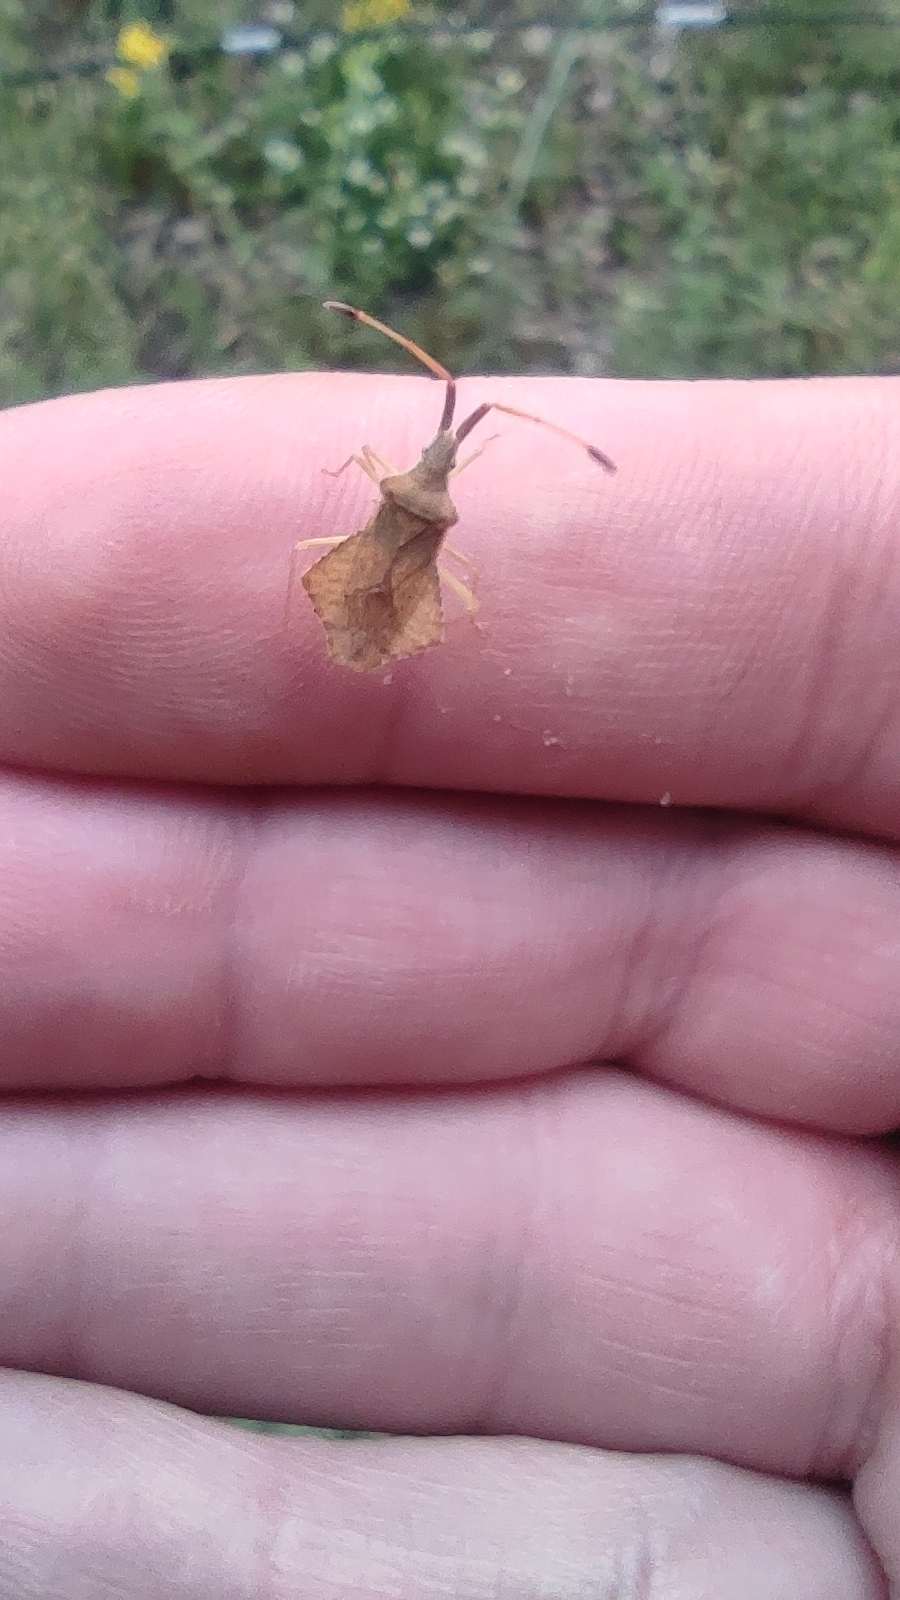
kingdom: Animalia
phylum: Arthropoda
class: Insecta
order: Hemiptera
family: Coreidae
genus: Syromastus
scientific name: Syromastus rhombeus
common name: Rhombic leatherbug
